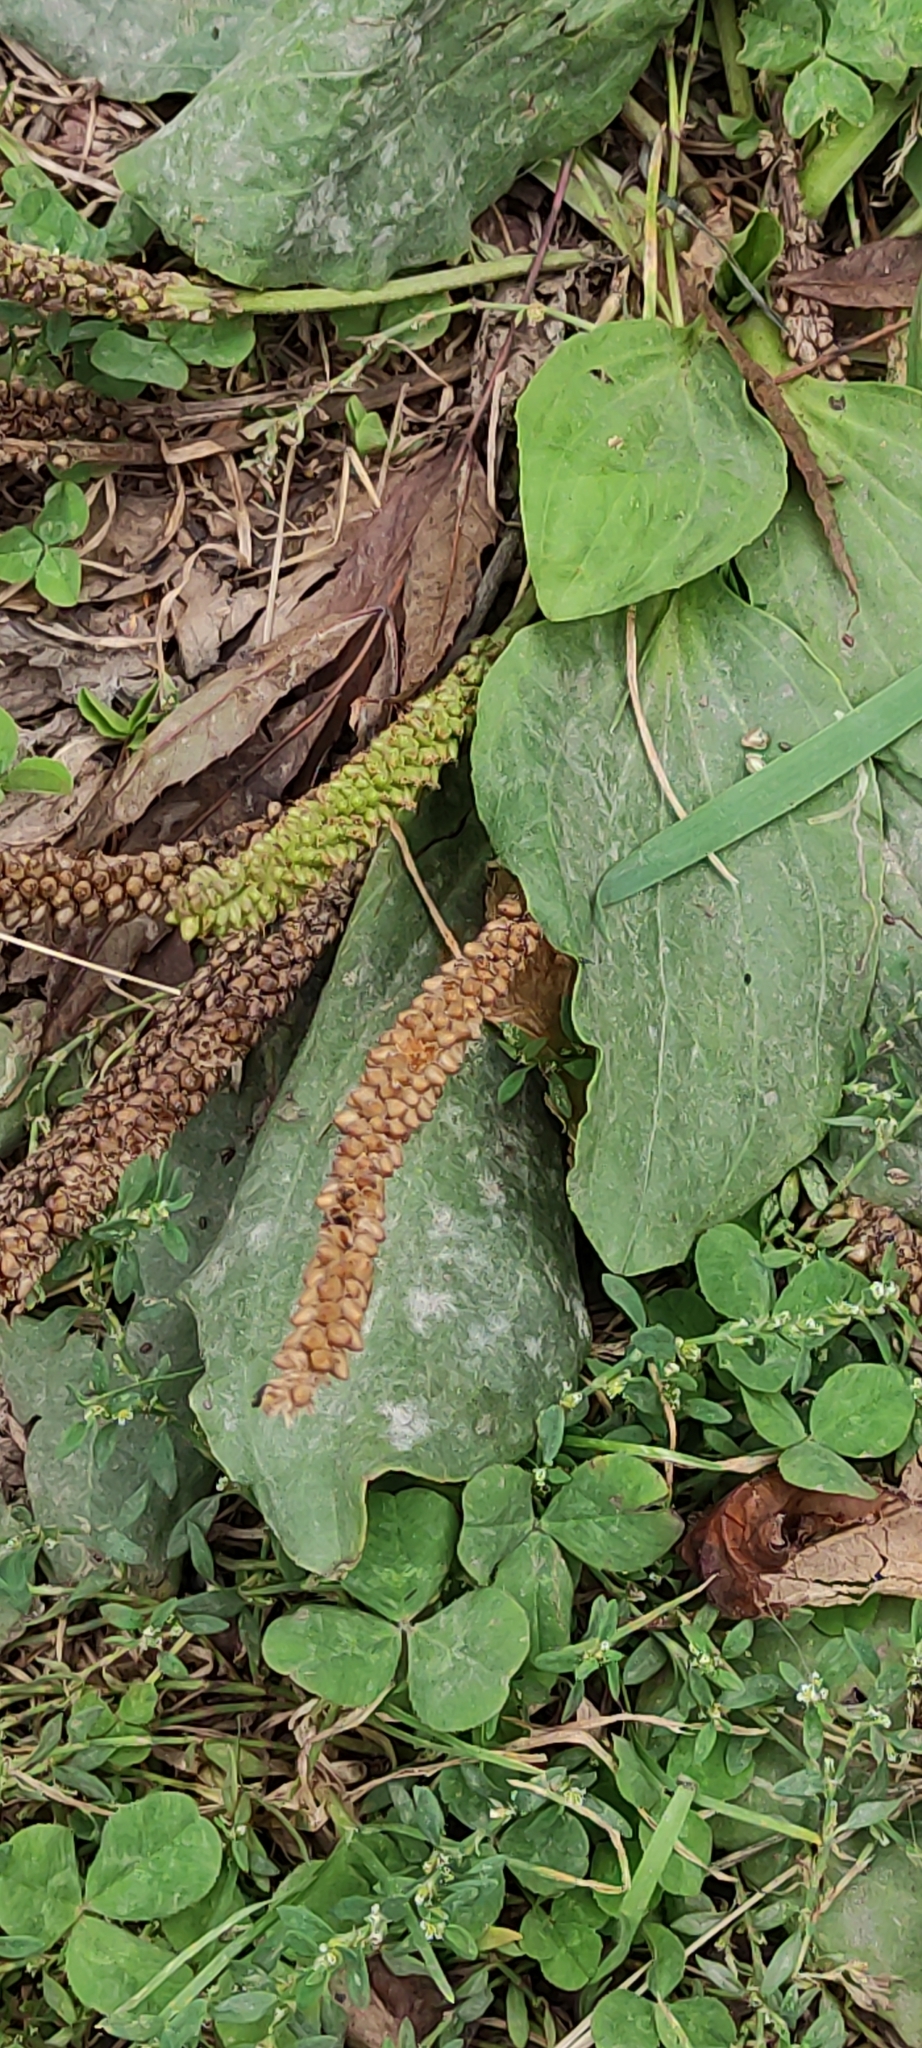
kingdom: Plantae
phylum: Tracheophyta
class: Magnoliopsida
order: Lamiales
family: Plantaginaceae
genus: Plantago
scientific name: Plantago major
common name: Common plantain
